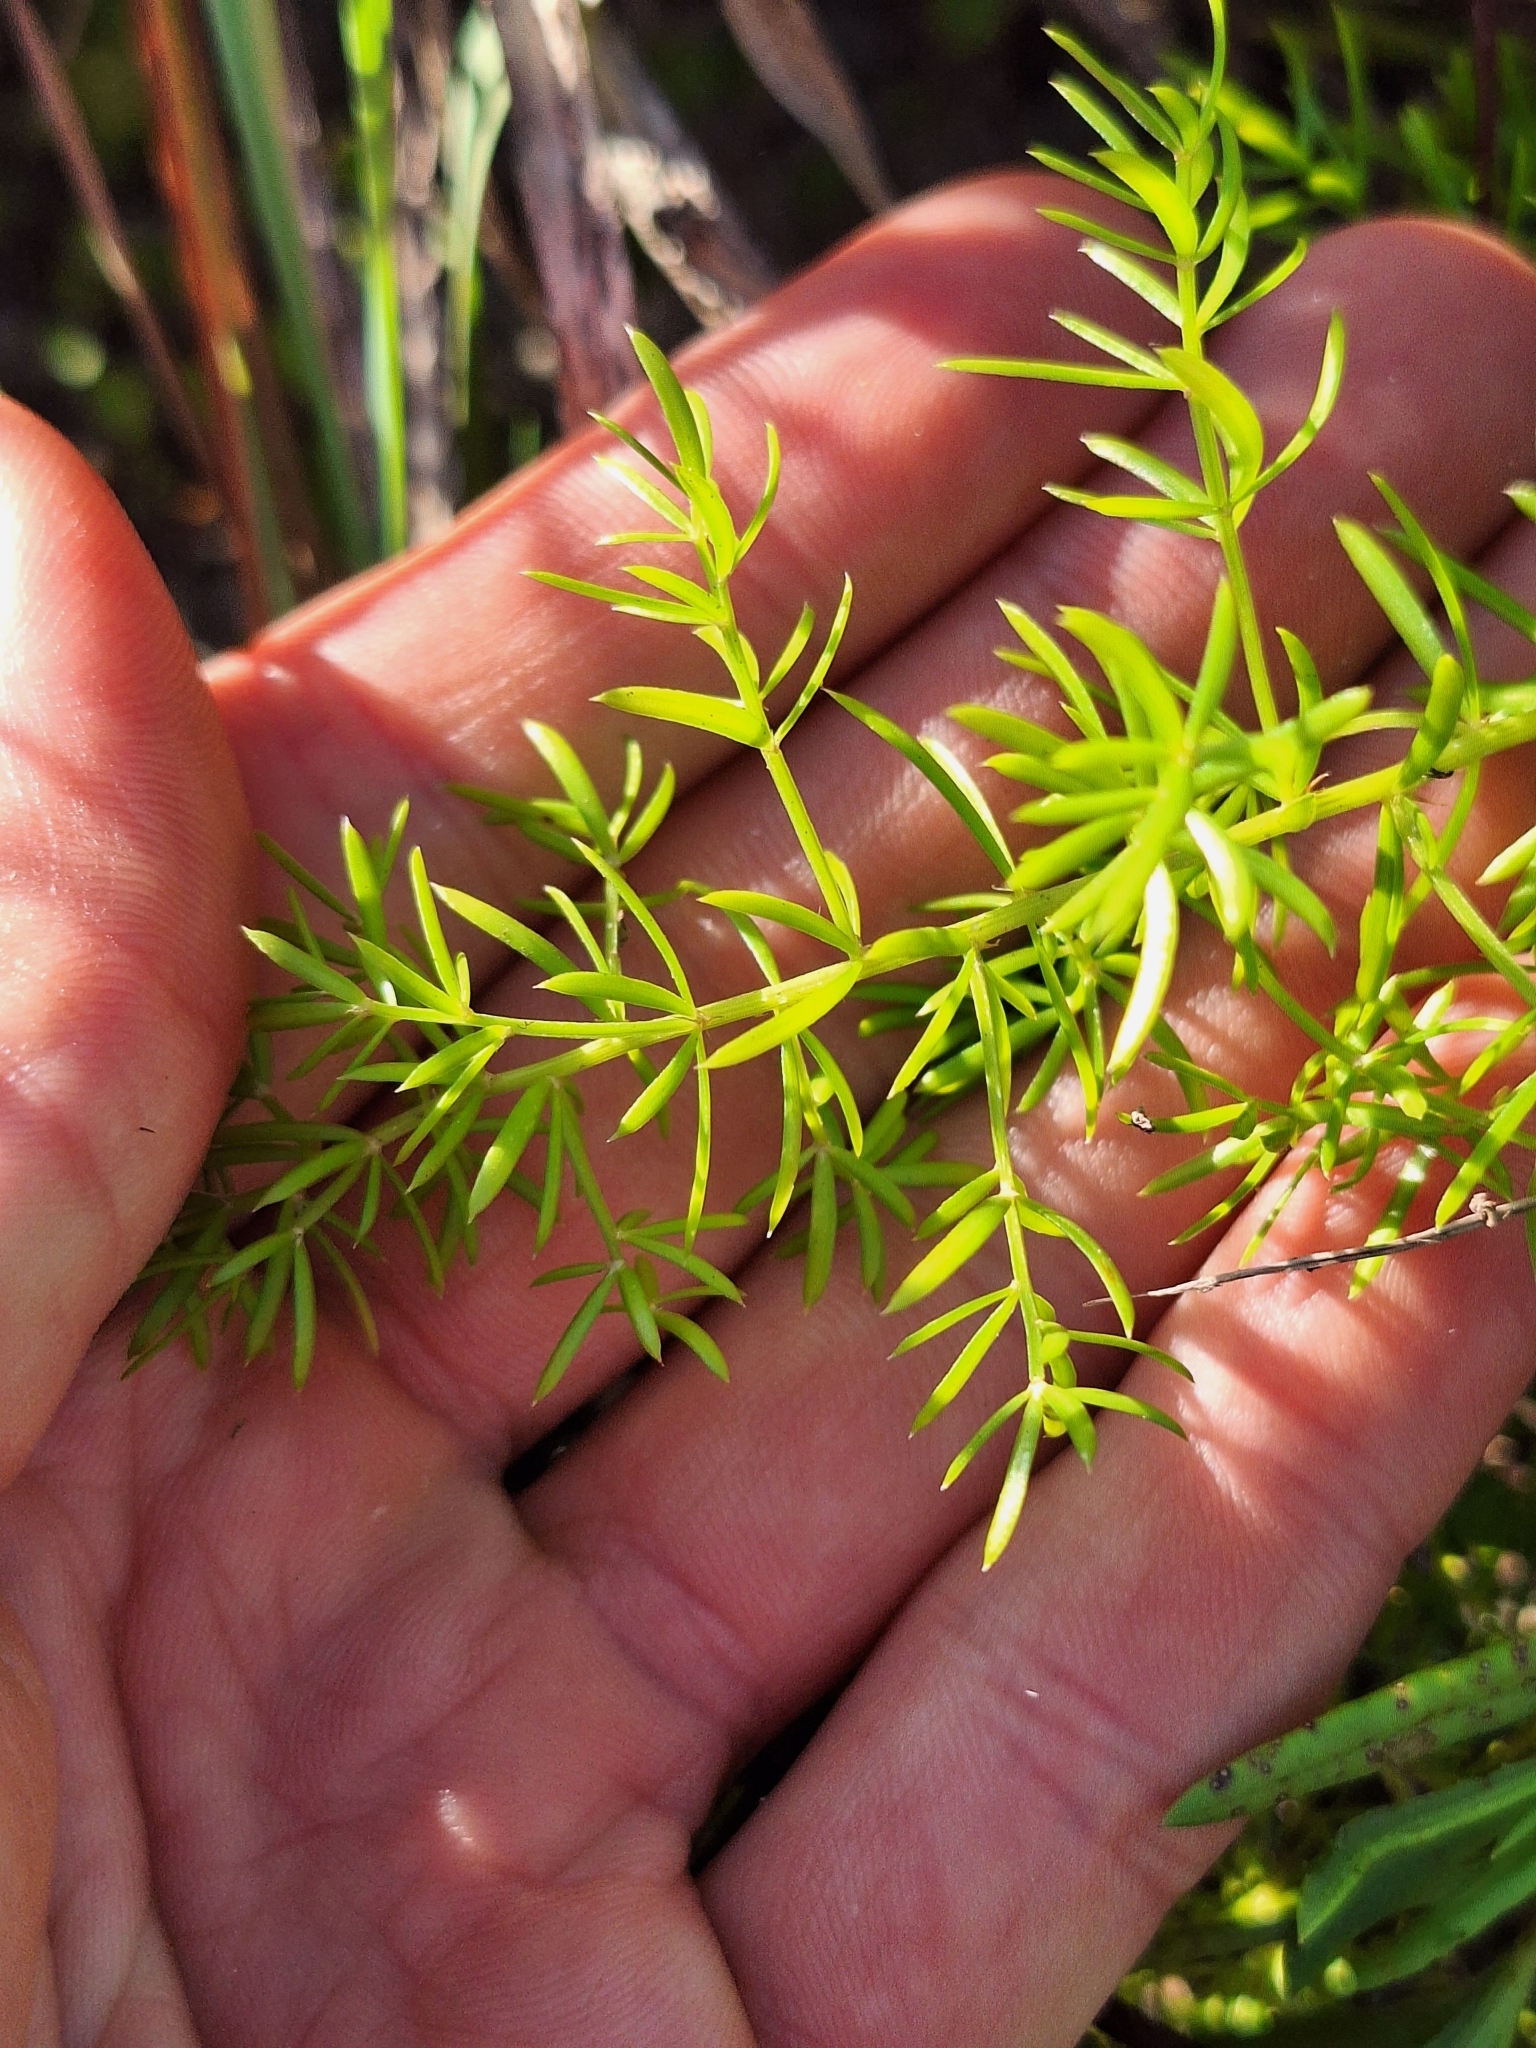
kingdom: Plantae
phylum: Tracheophyta
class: Liliopsida
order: Asparagales
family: Asparagaceae
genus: Asparagus
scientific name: Asparagus aethiopicus
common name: Sprenger's asparagus fern
